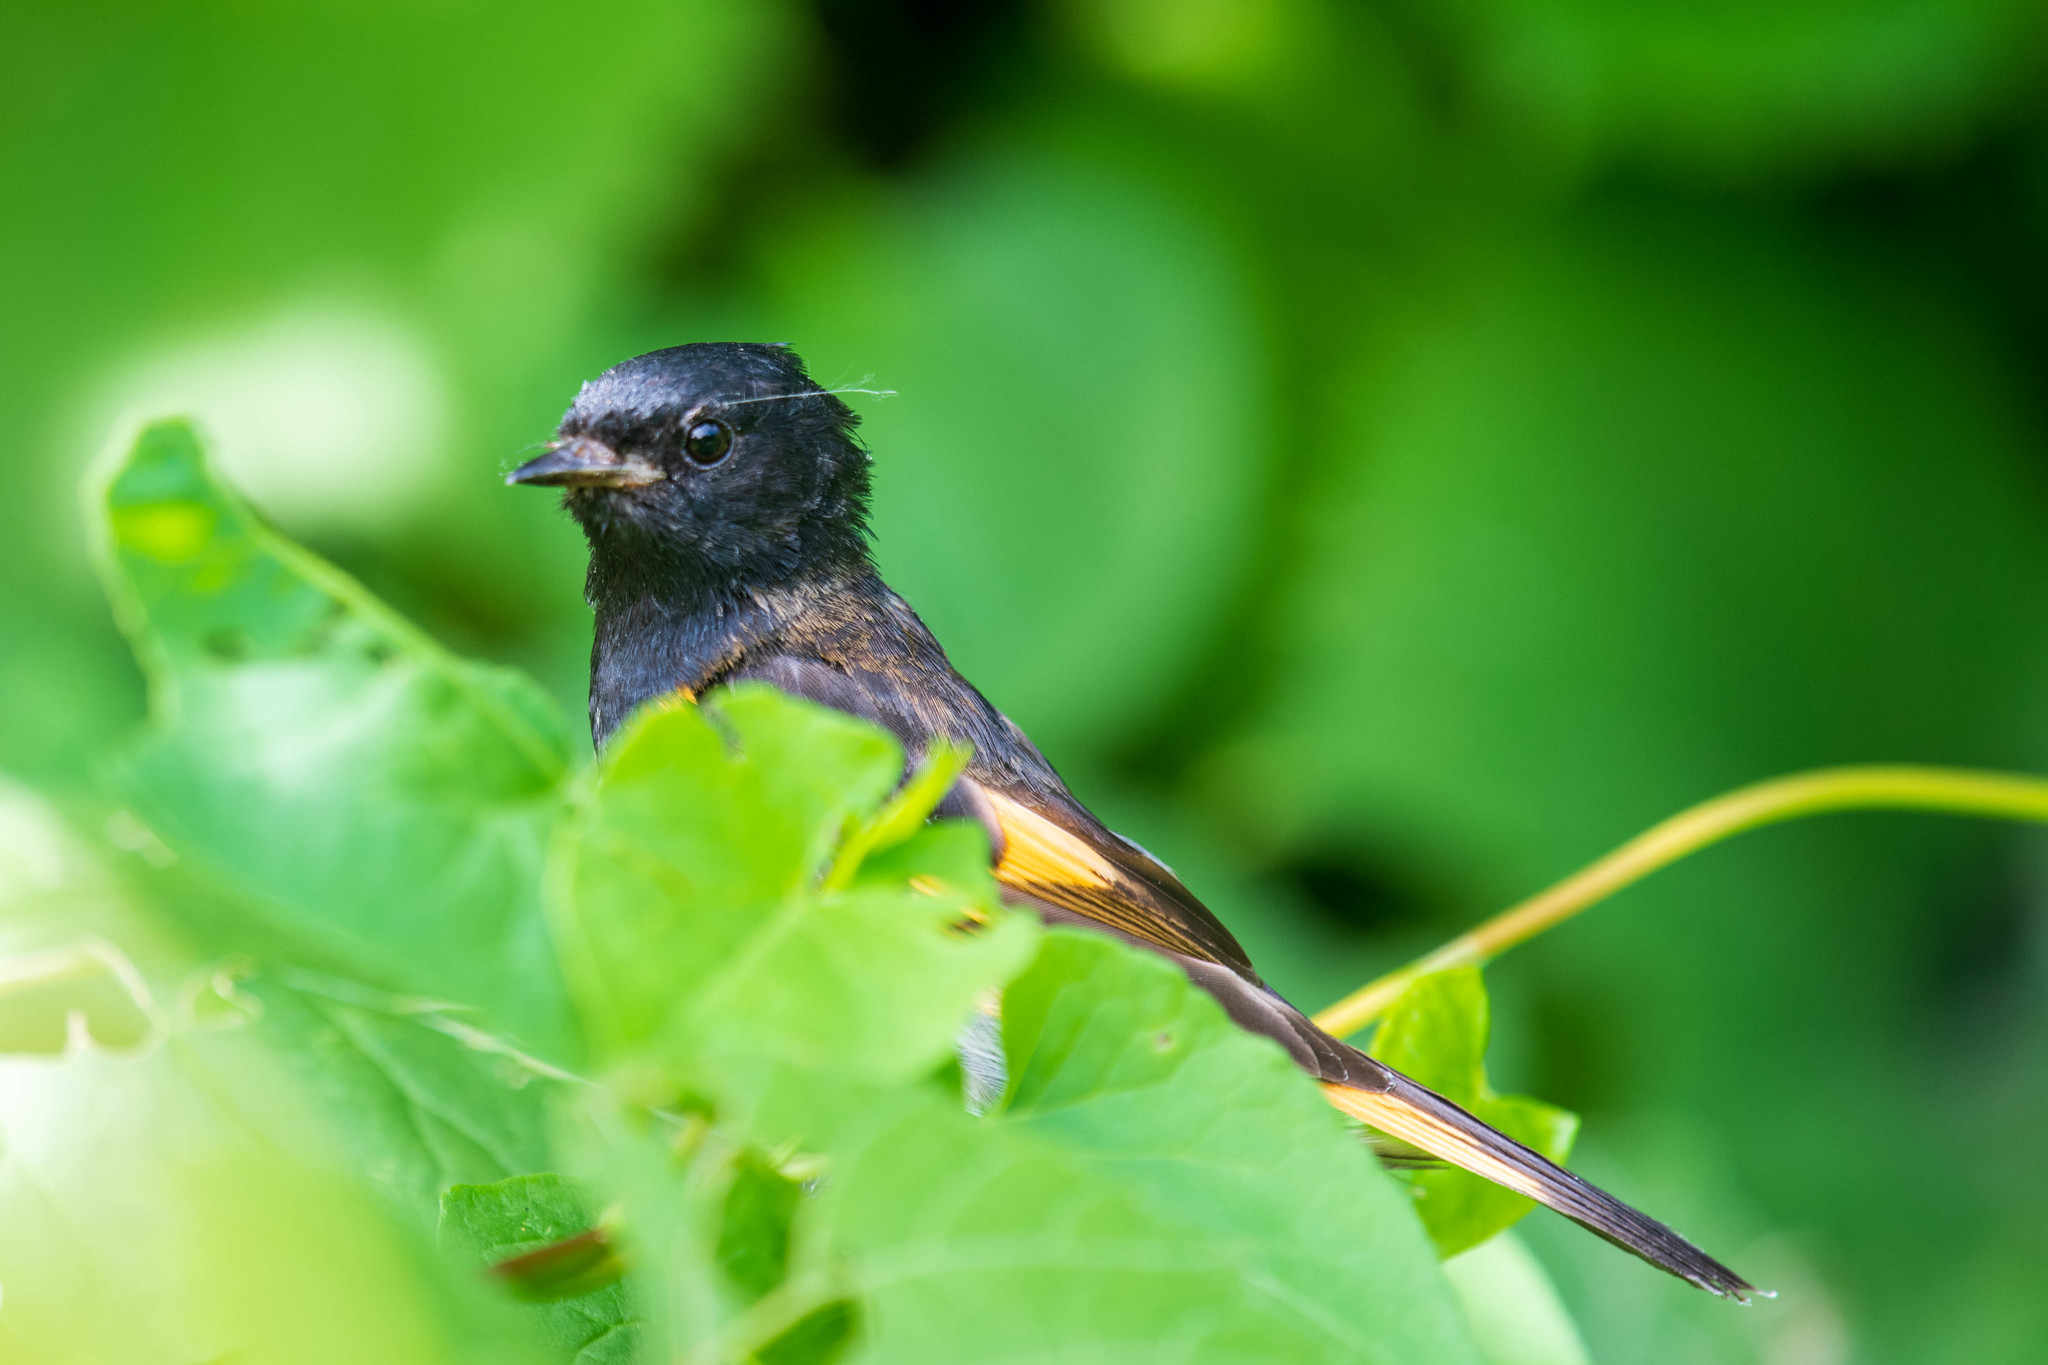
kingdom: Animalia
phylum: Chordata
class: Aves
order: Passeriformes
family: Parulidae
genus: Setophaga
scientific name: Setophaga ruticilla
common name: American redstart
